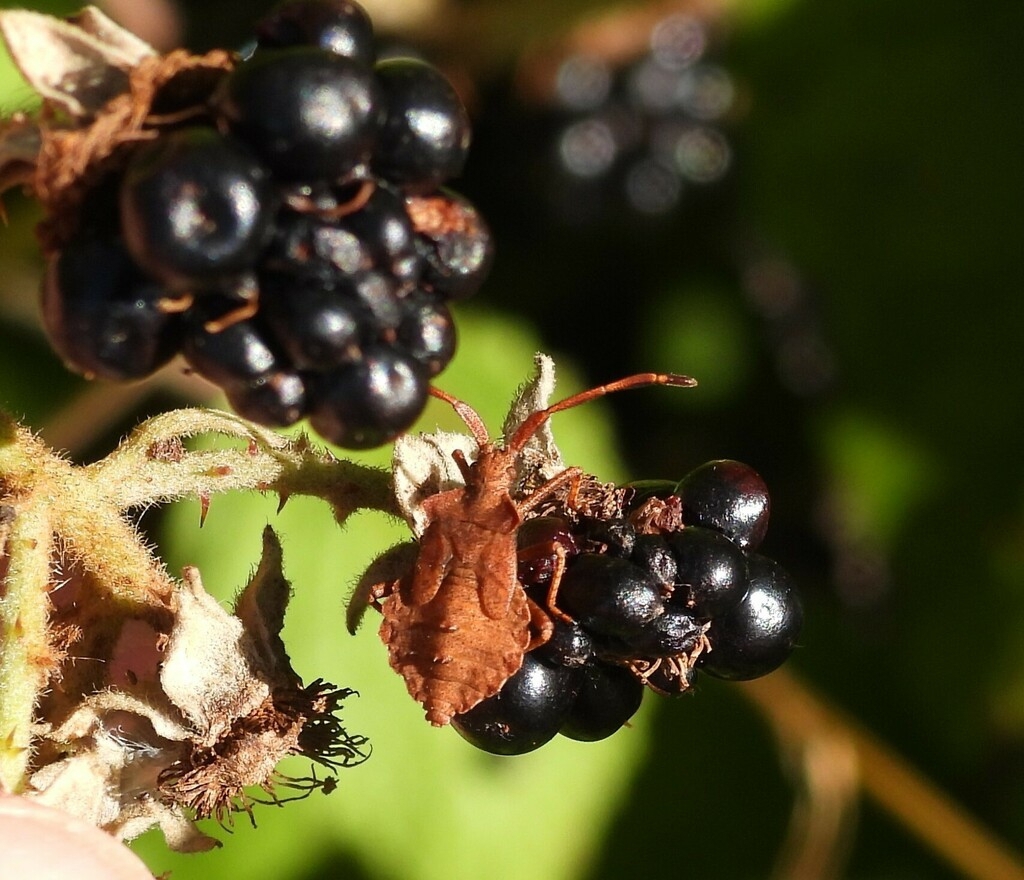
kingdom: Animalia
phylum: Arthropoda
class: Insecta
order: Hemiptera
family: Coreidae
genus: Coreus
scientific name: Coreus marginatus
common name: Dock bug
